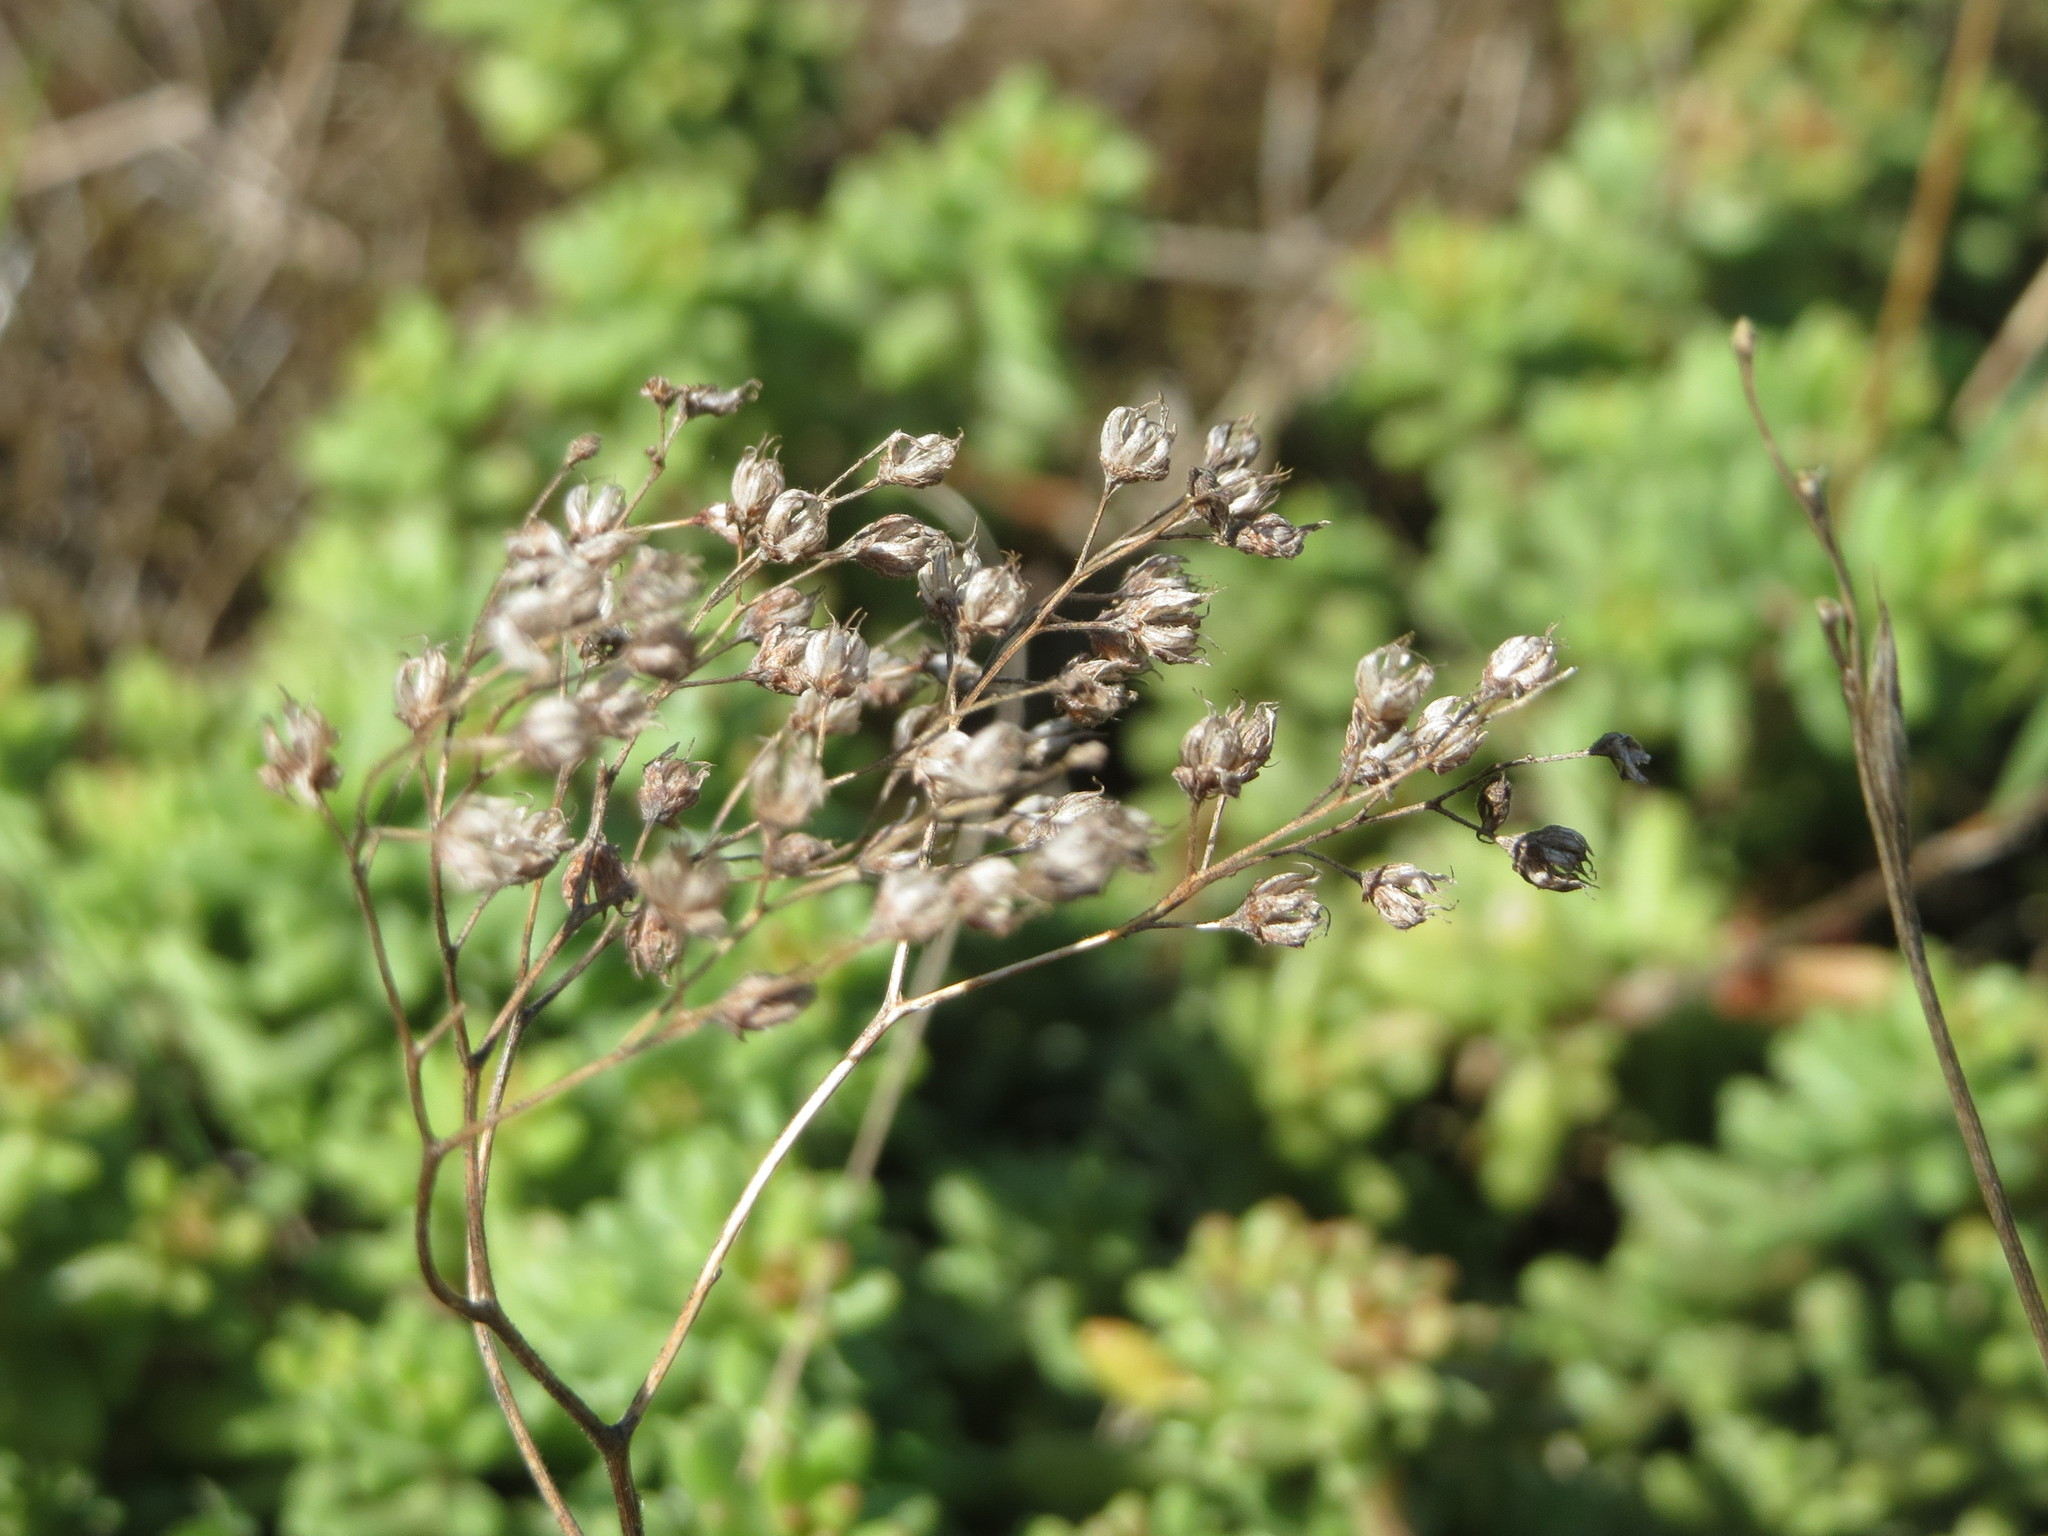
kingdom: Plantae
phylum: Tracheophyta
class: Magnoliopsida
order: Saxifragales
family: Crassulaceae
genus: Sedum
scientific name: Sedum album
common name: White stonecrop
